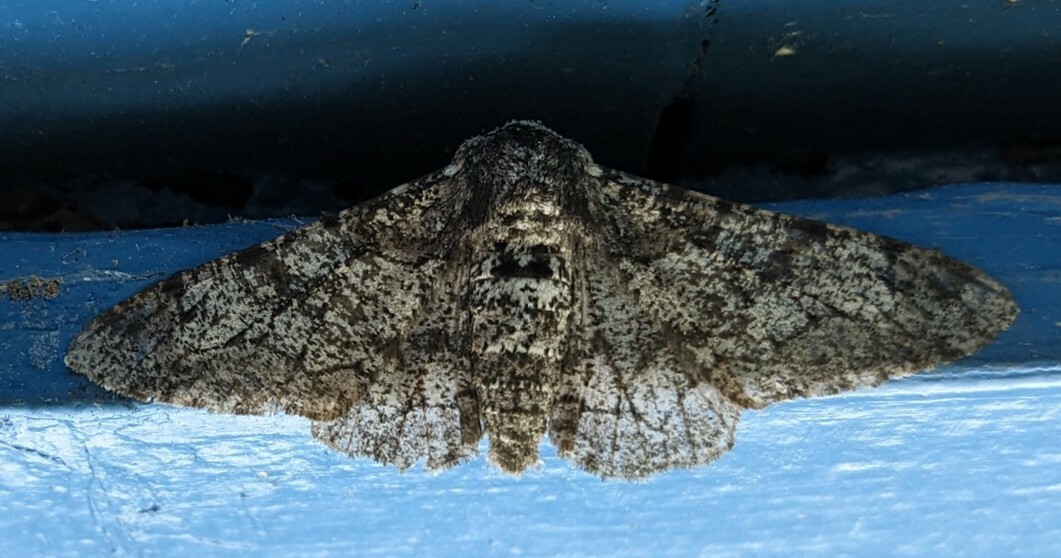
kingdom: Animalia
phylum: Arthropoda
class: Insecta
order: Lepidoptera
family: Geometridae
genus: Biston
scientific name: Biston betularia
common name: Peppered moth
